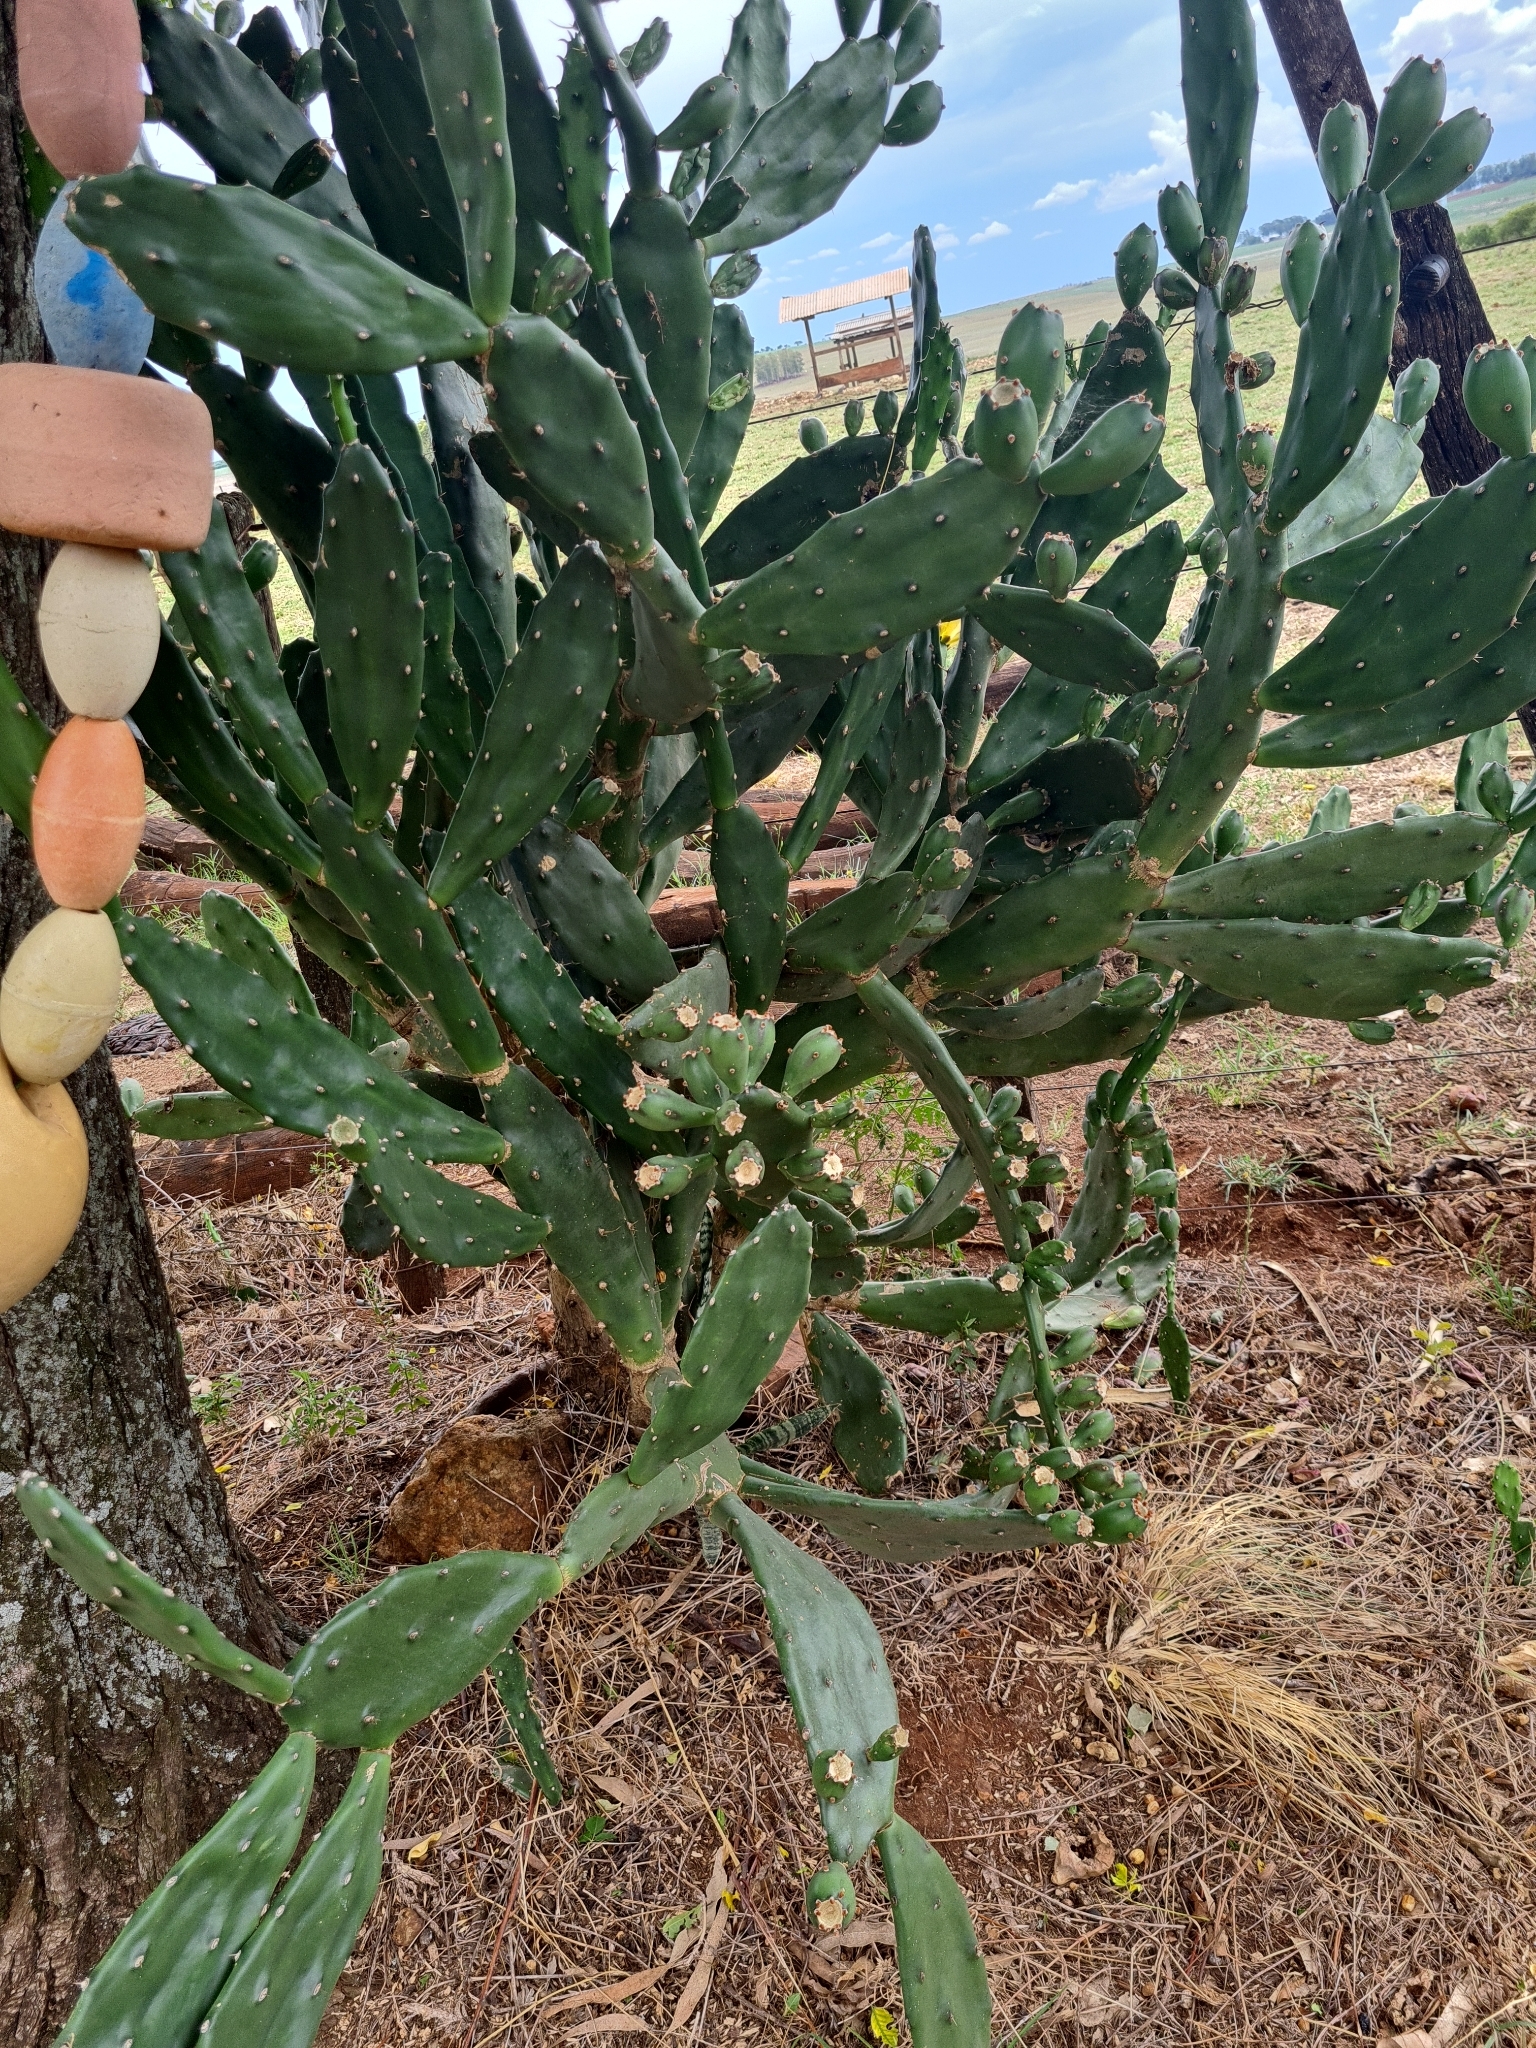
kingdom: Plantae
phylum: Tracheophyta
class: Magnoliopsida
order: Caryophyllales
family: Cactaceae
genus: Opuntia
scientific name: Opuntia cochenillifera
